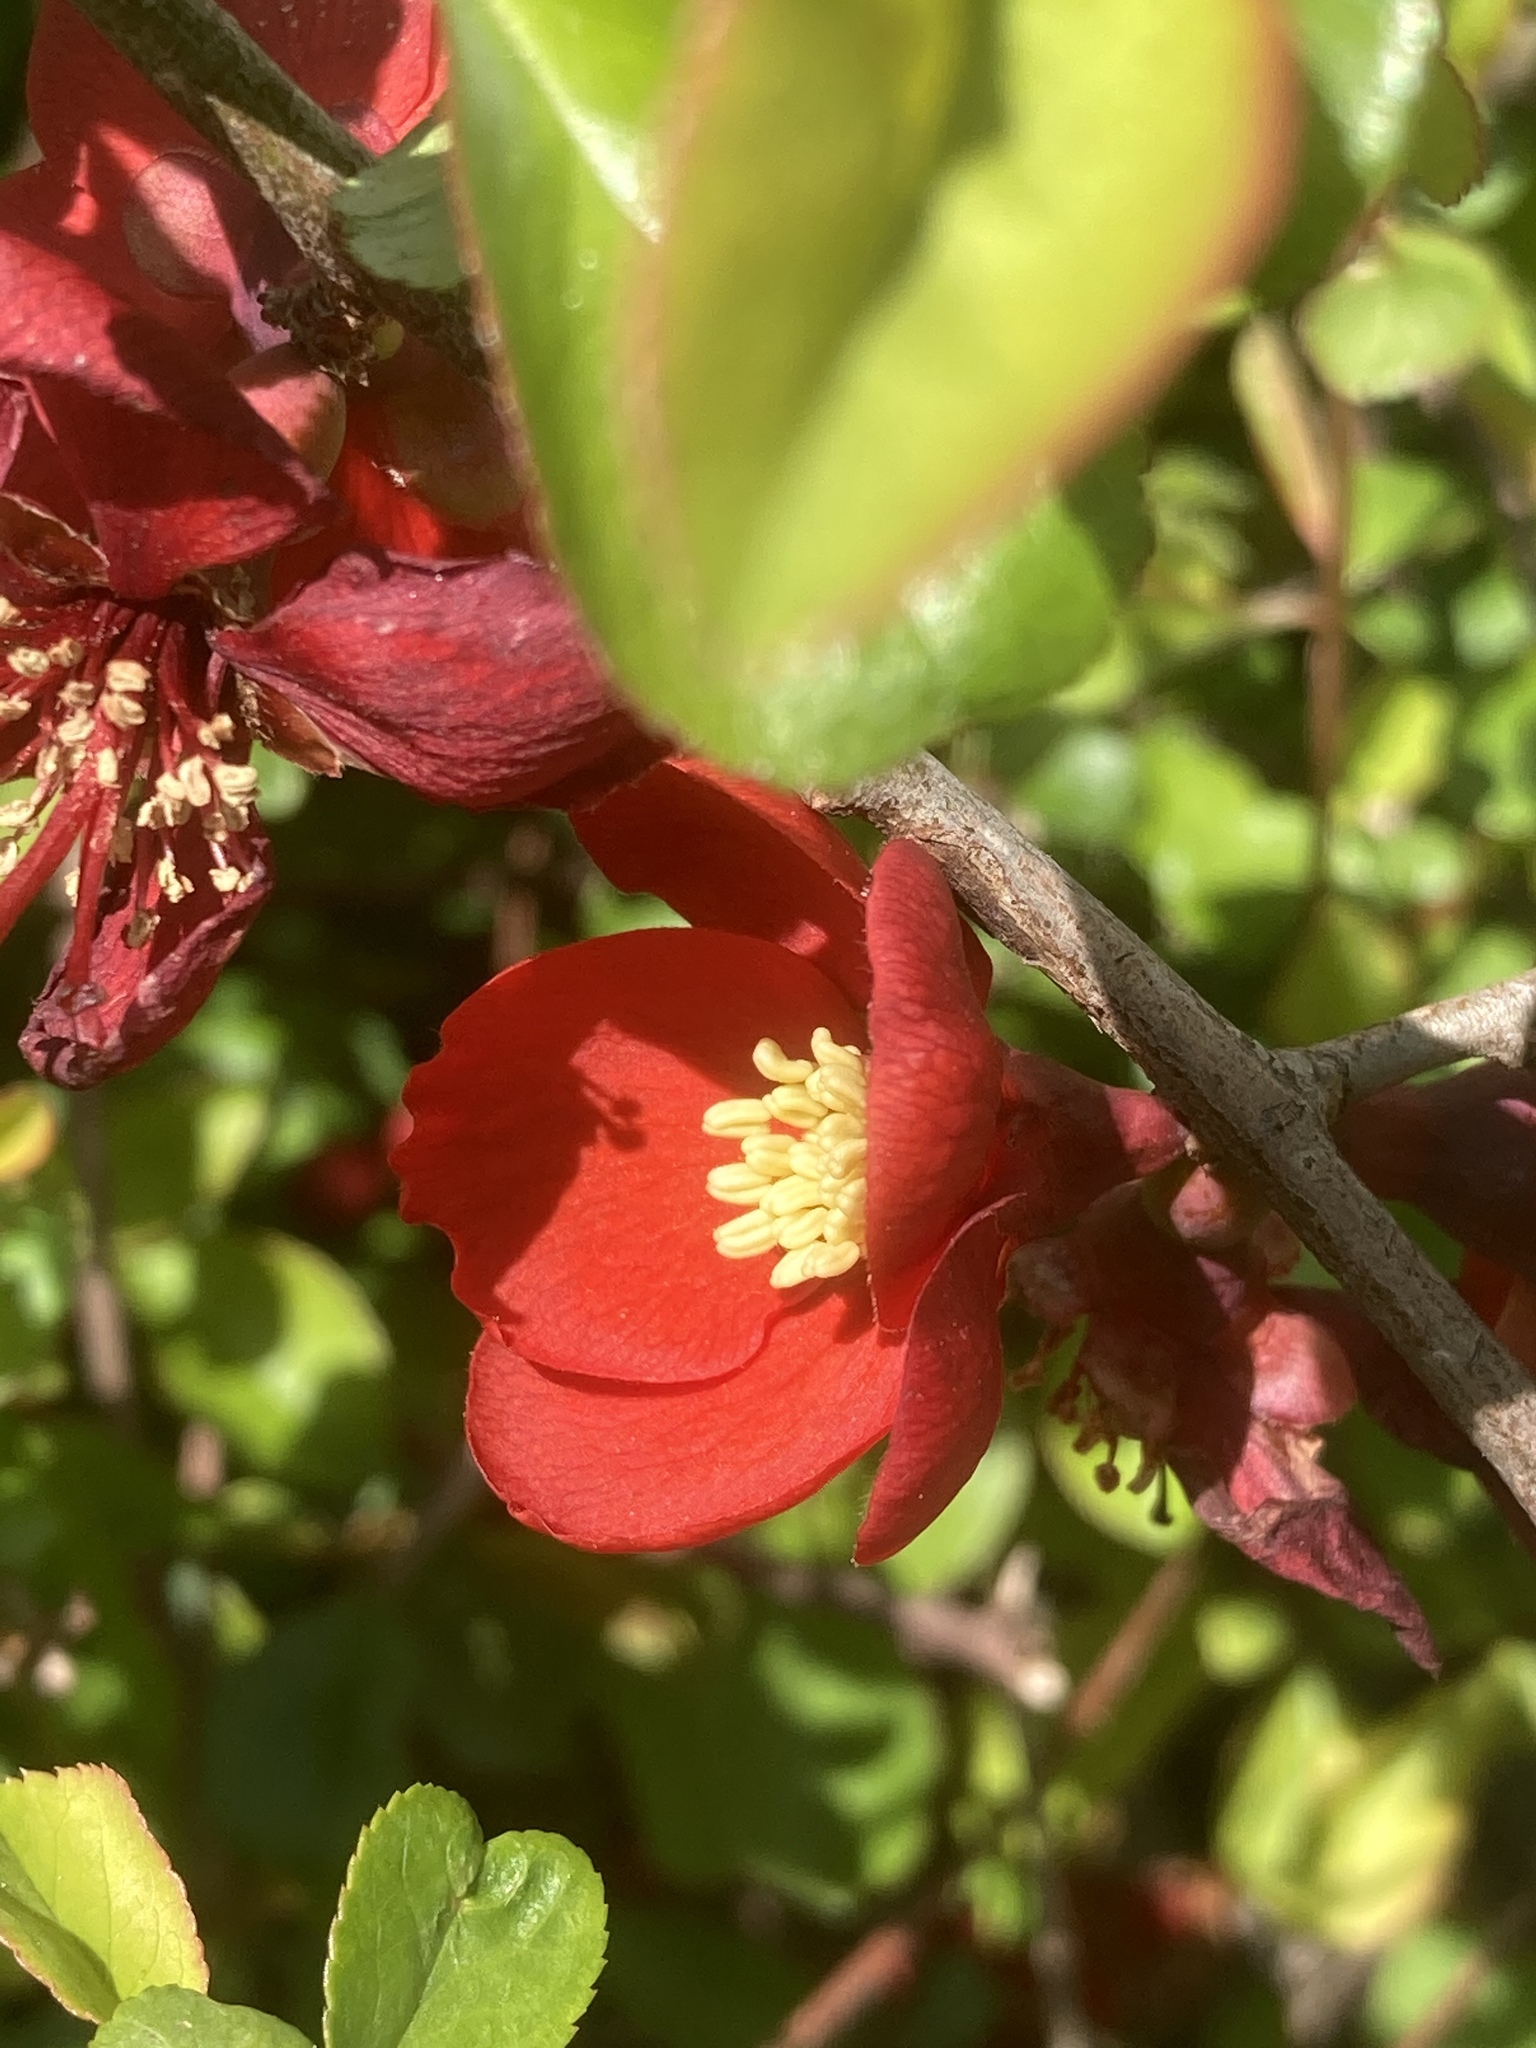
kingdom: Plantae
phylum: Tracheophyta
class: Magnoliopsida
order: Rosales
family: Rosaceae
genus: Chaenomeles
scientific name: Chaenomeles speciosa
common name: Japanese quince
